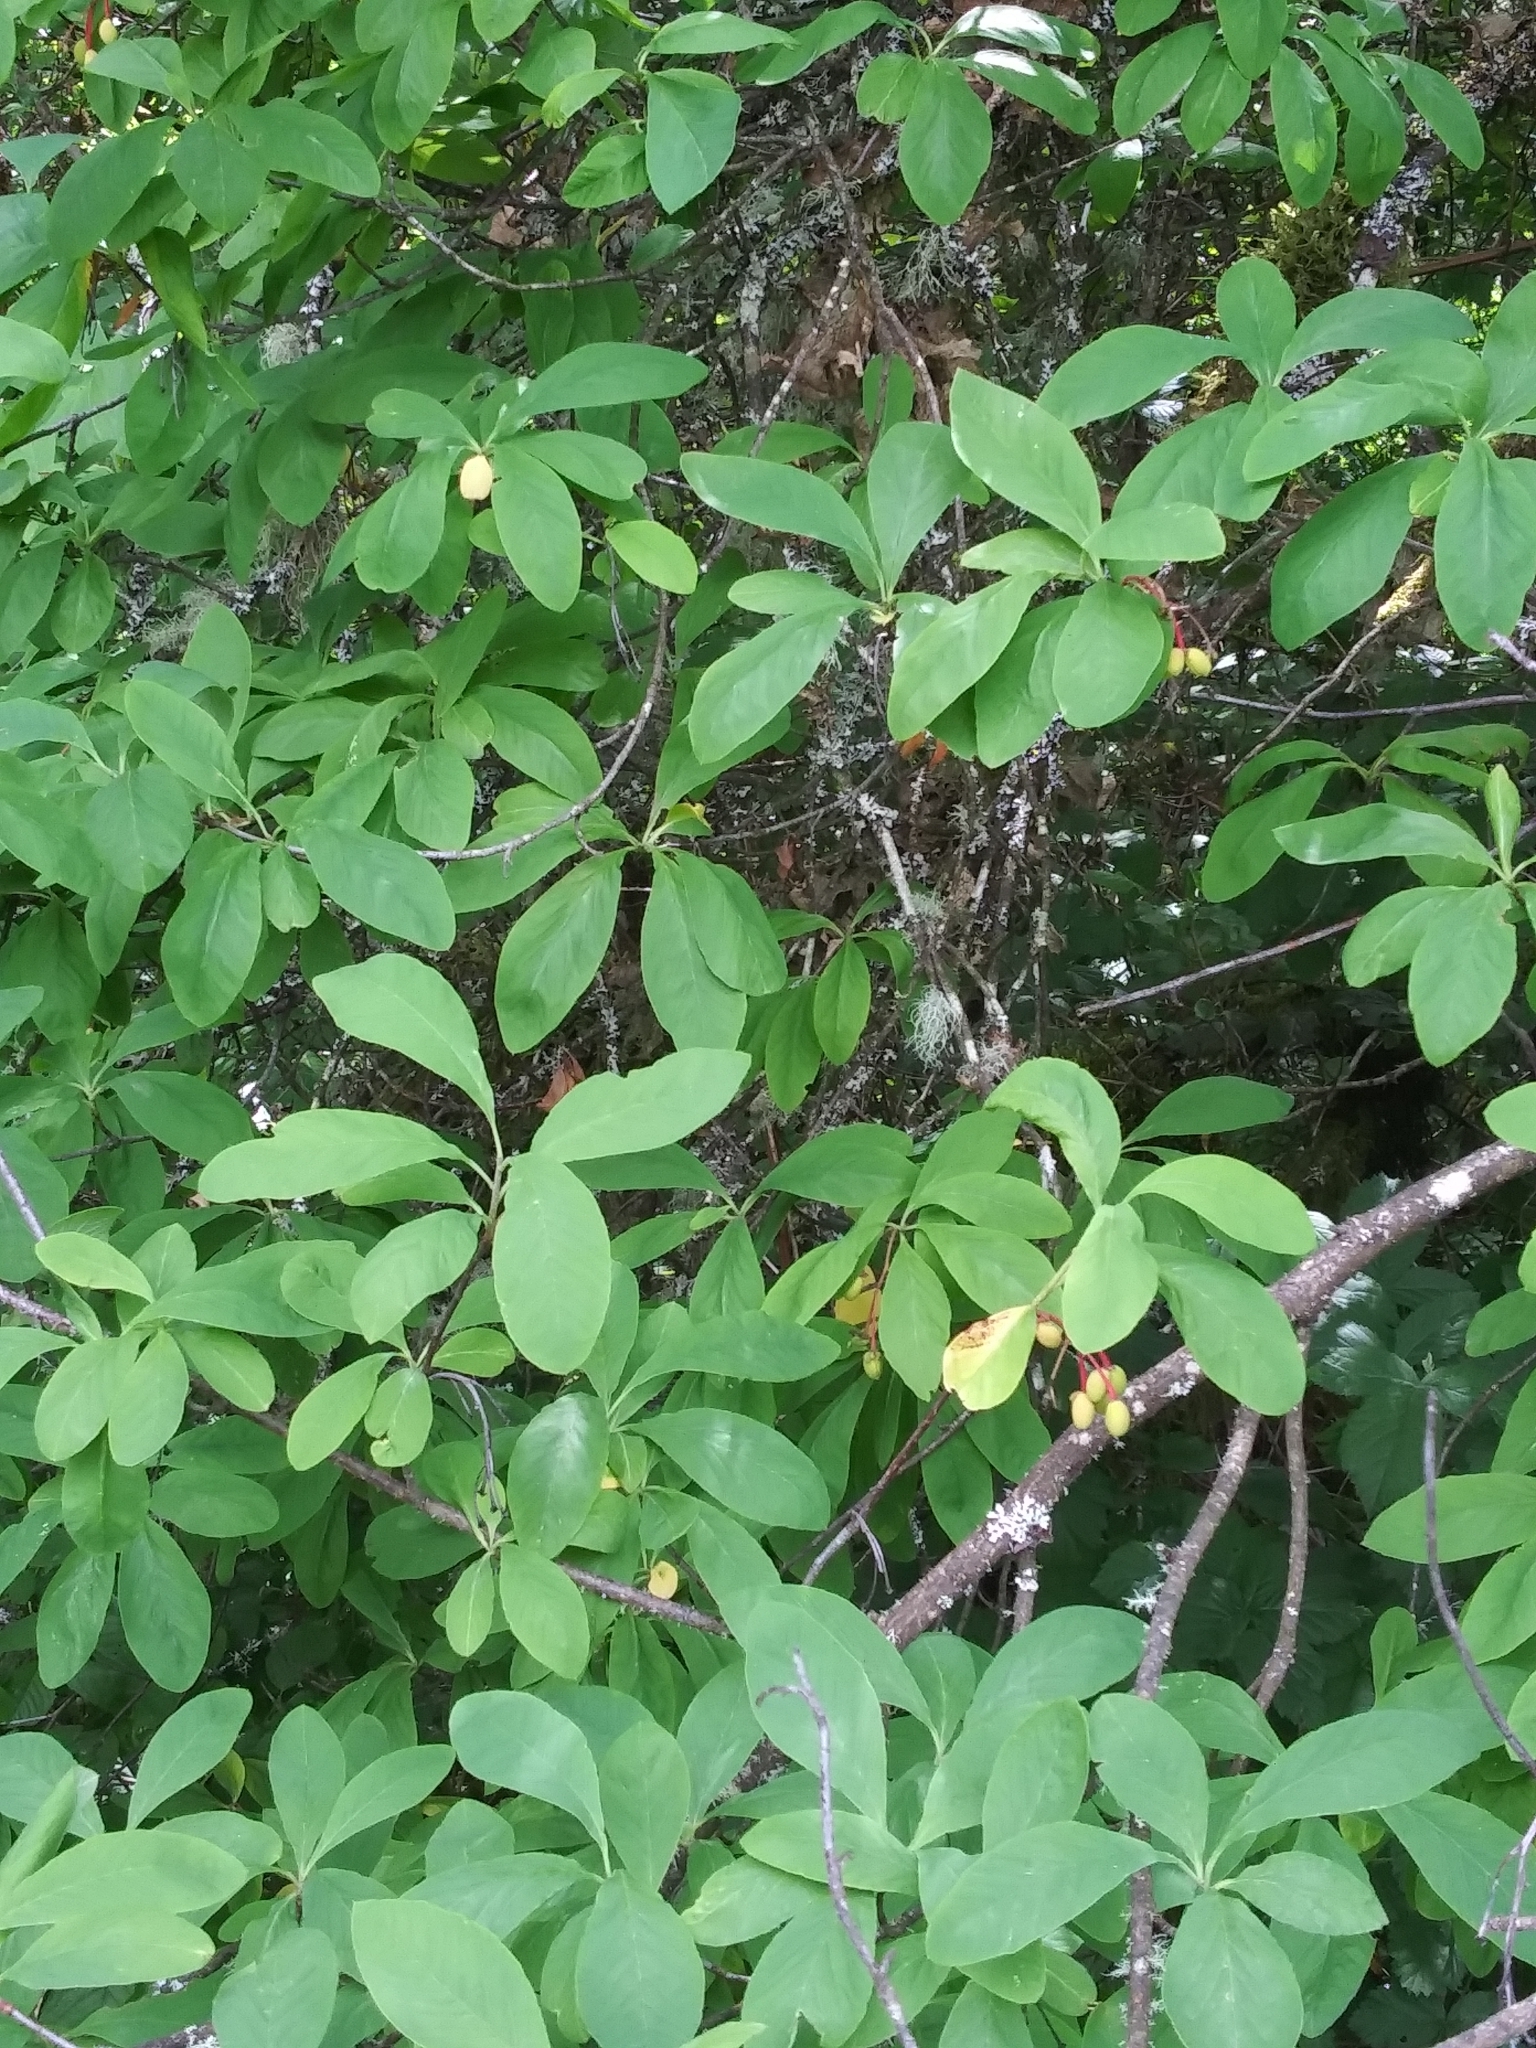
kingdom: Plantae
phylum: Tracheophyta
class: Magnoliopsida
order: Rosales
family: Rosaceae
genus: Oemleria
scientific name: Oemleria cerasiformis
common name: Osoberry
